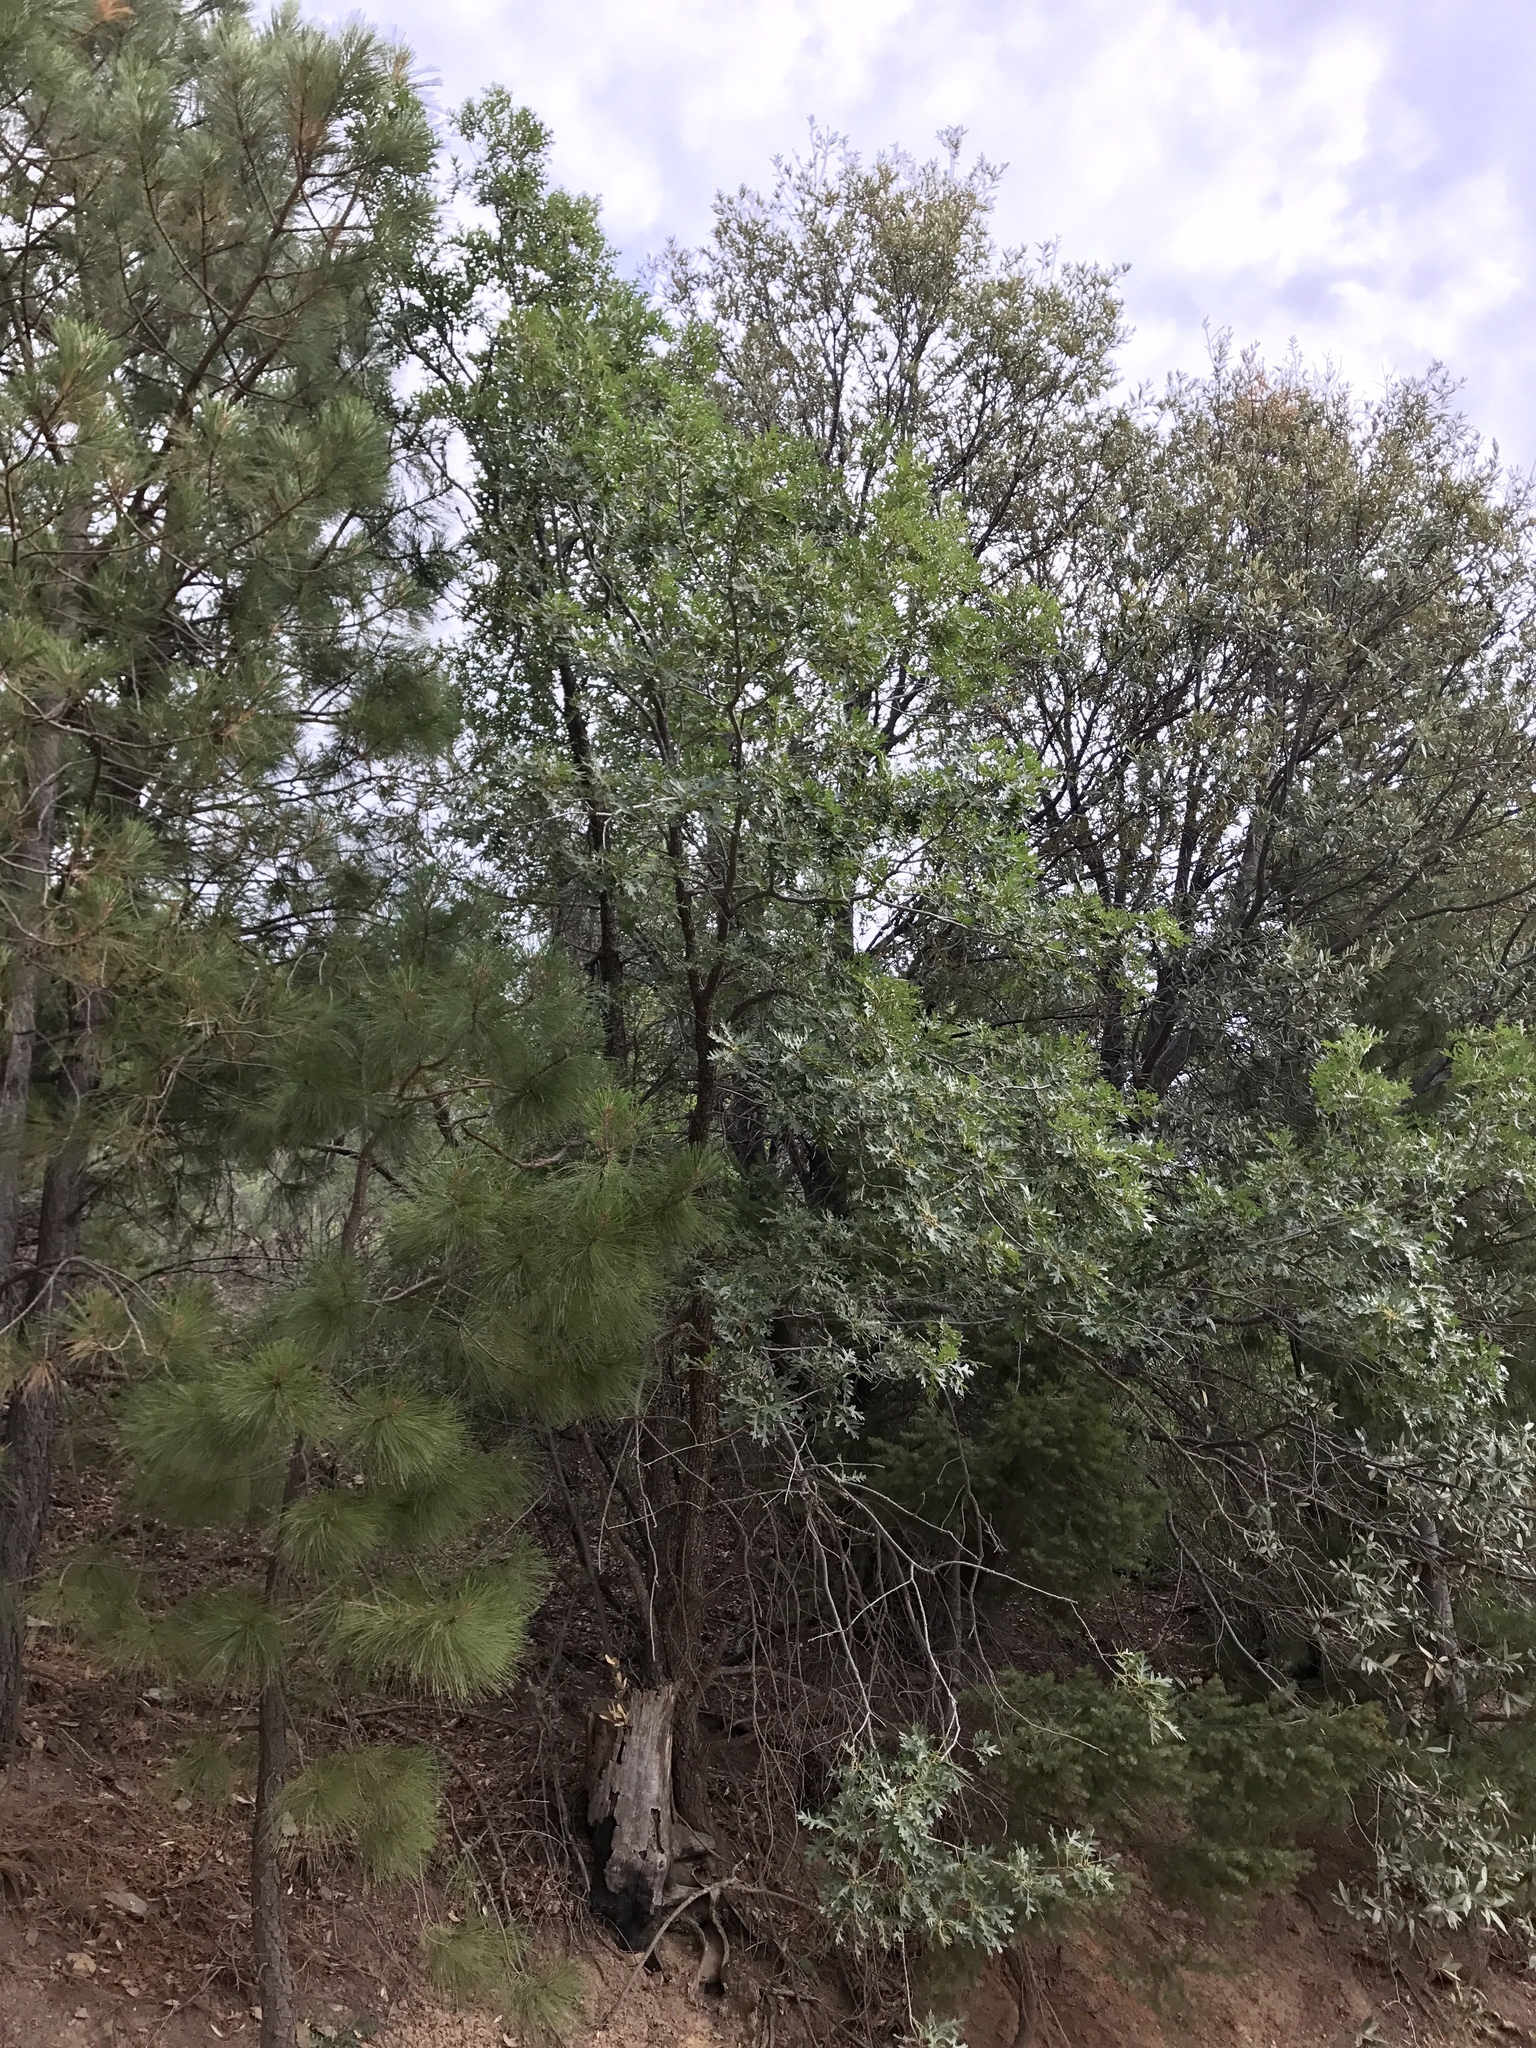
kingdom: Plantae
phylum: Tracheophyta
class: Magnoliopsida
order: Fagales
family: Fagaceae
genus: Quercus
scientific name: Quercus gambelii
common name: Gambel oak
